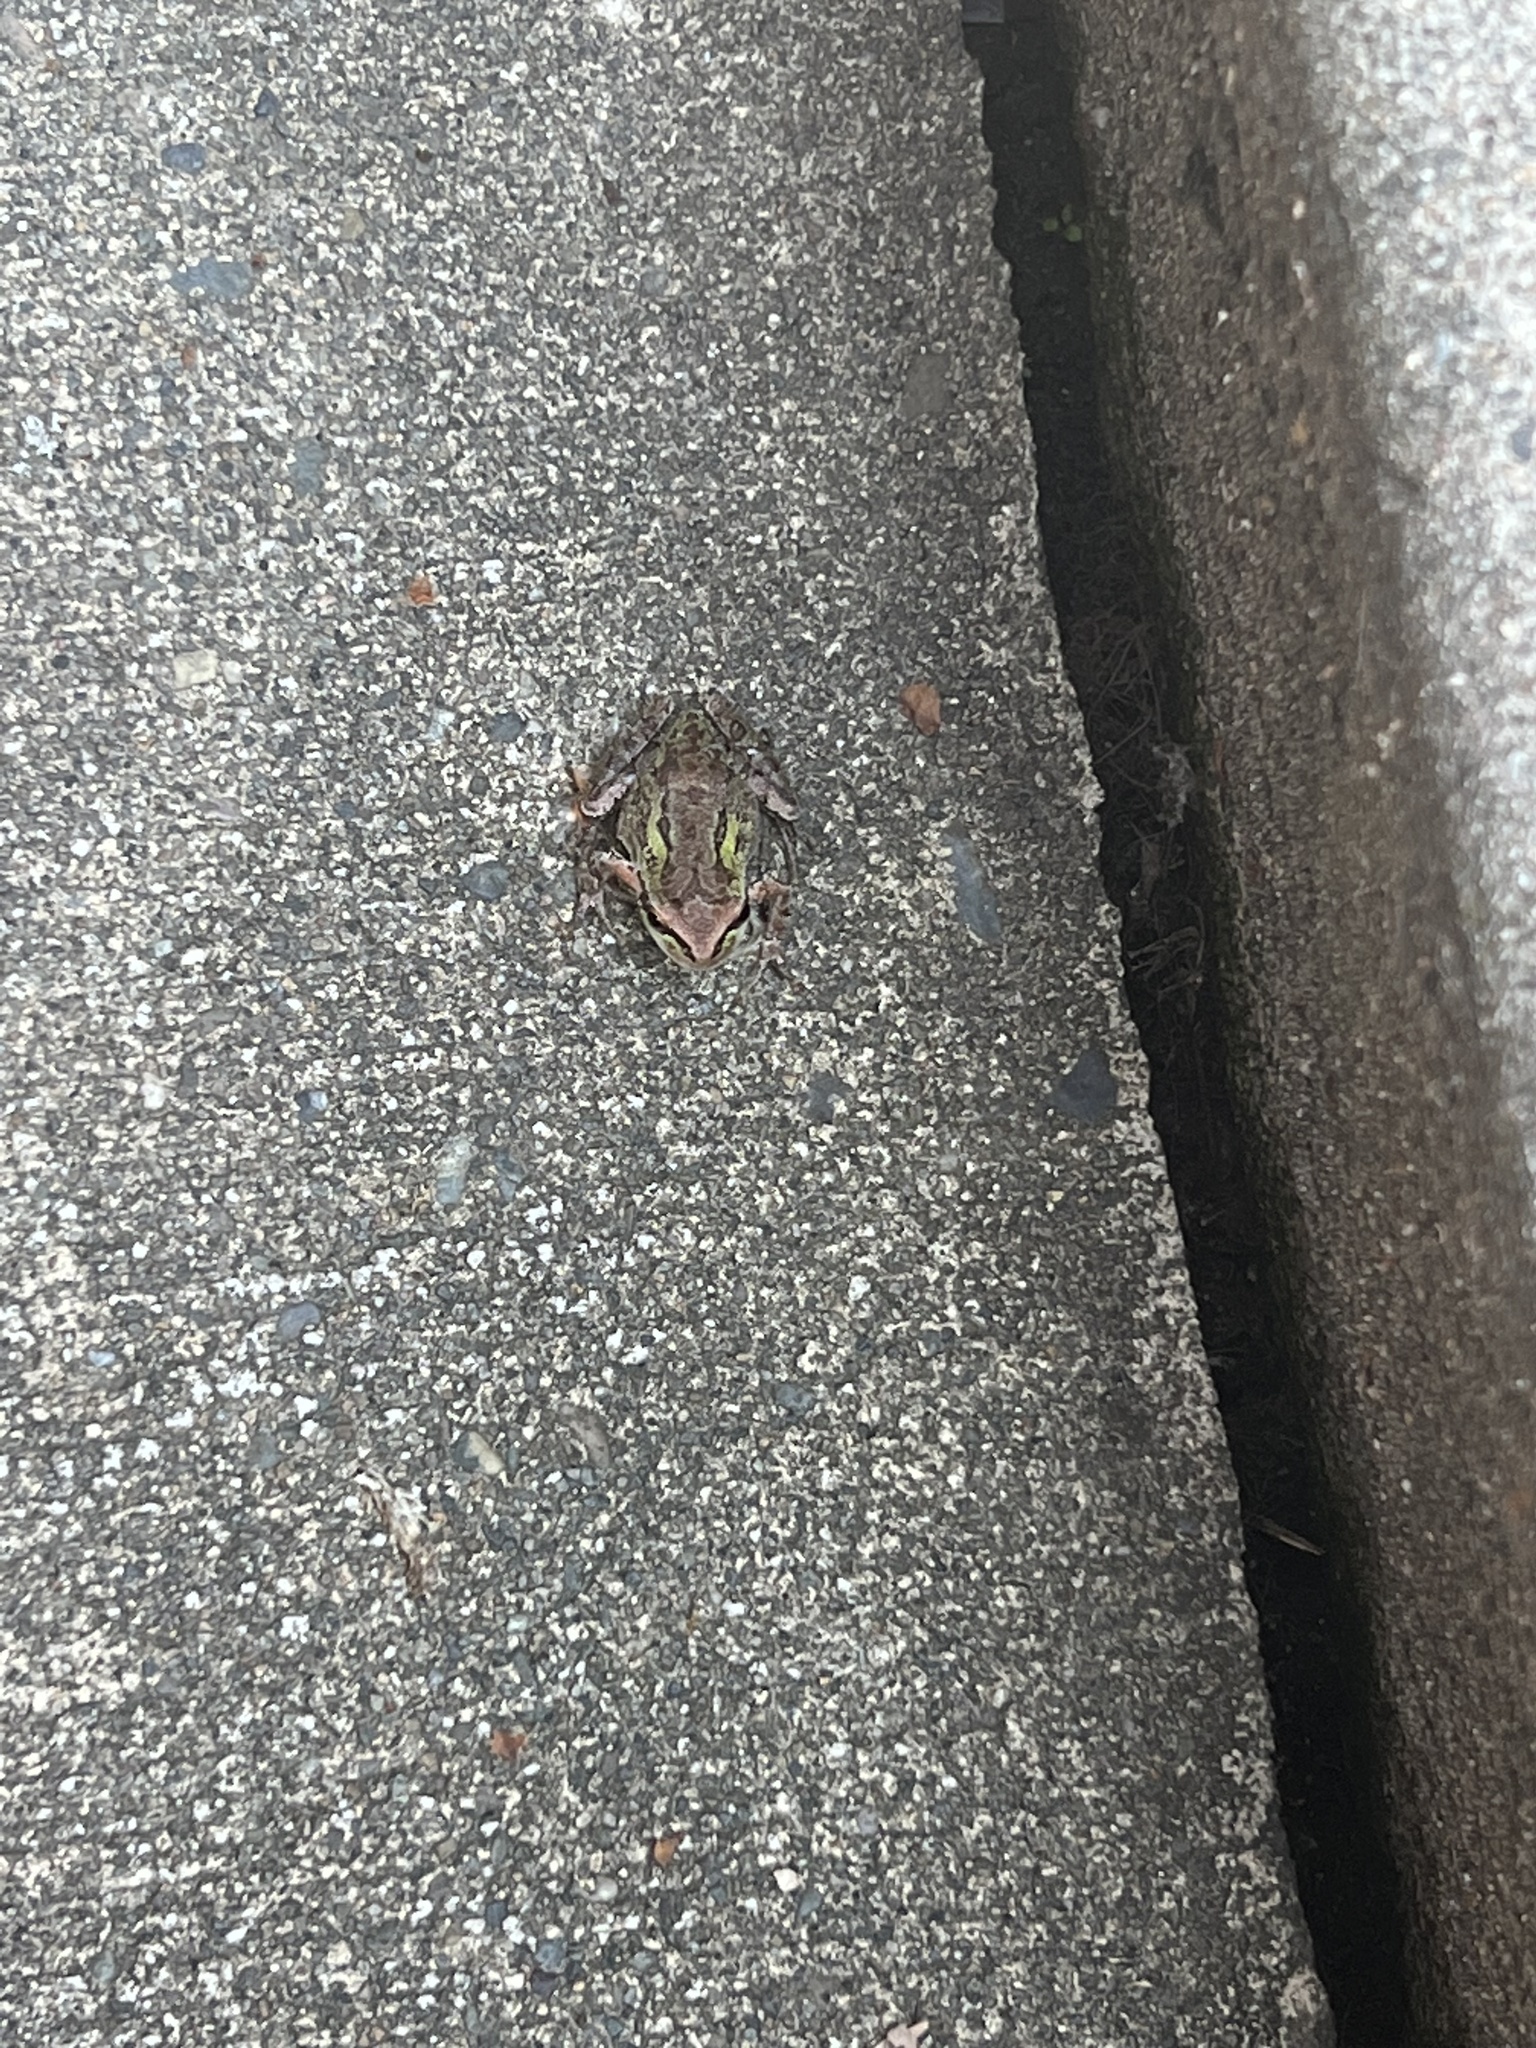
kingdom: Animalia
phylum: Chordata
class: Amphibia
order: Anura
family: Hylidae
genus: Pseudacris
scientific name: Pseudacris regilla
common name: Pacific chorus frog
